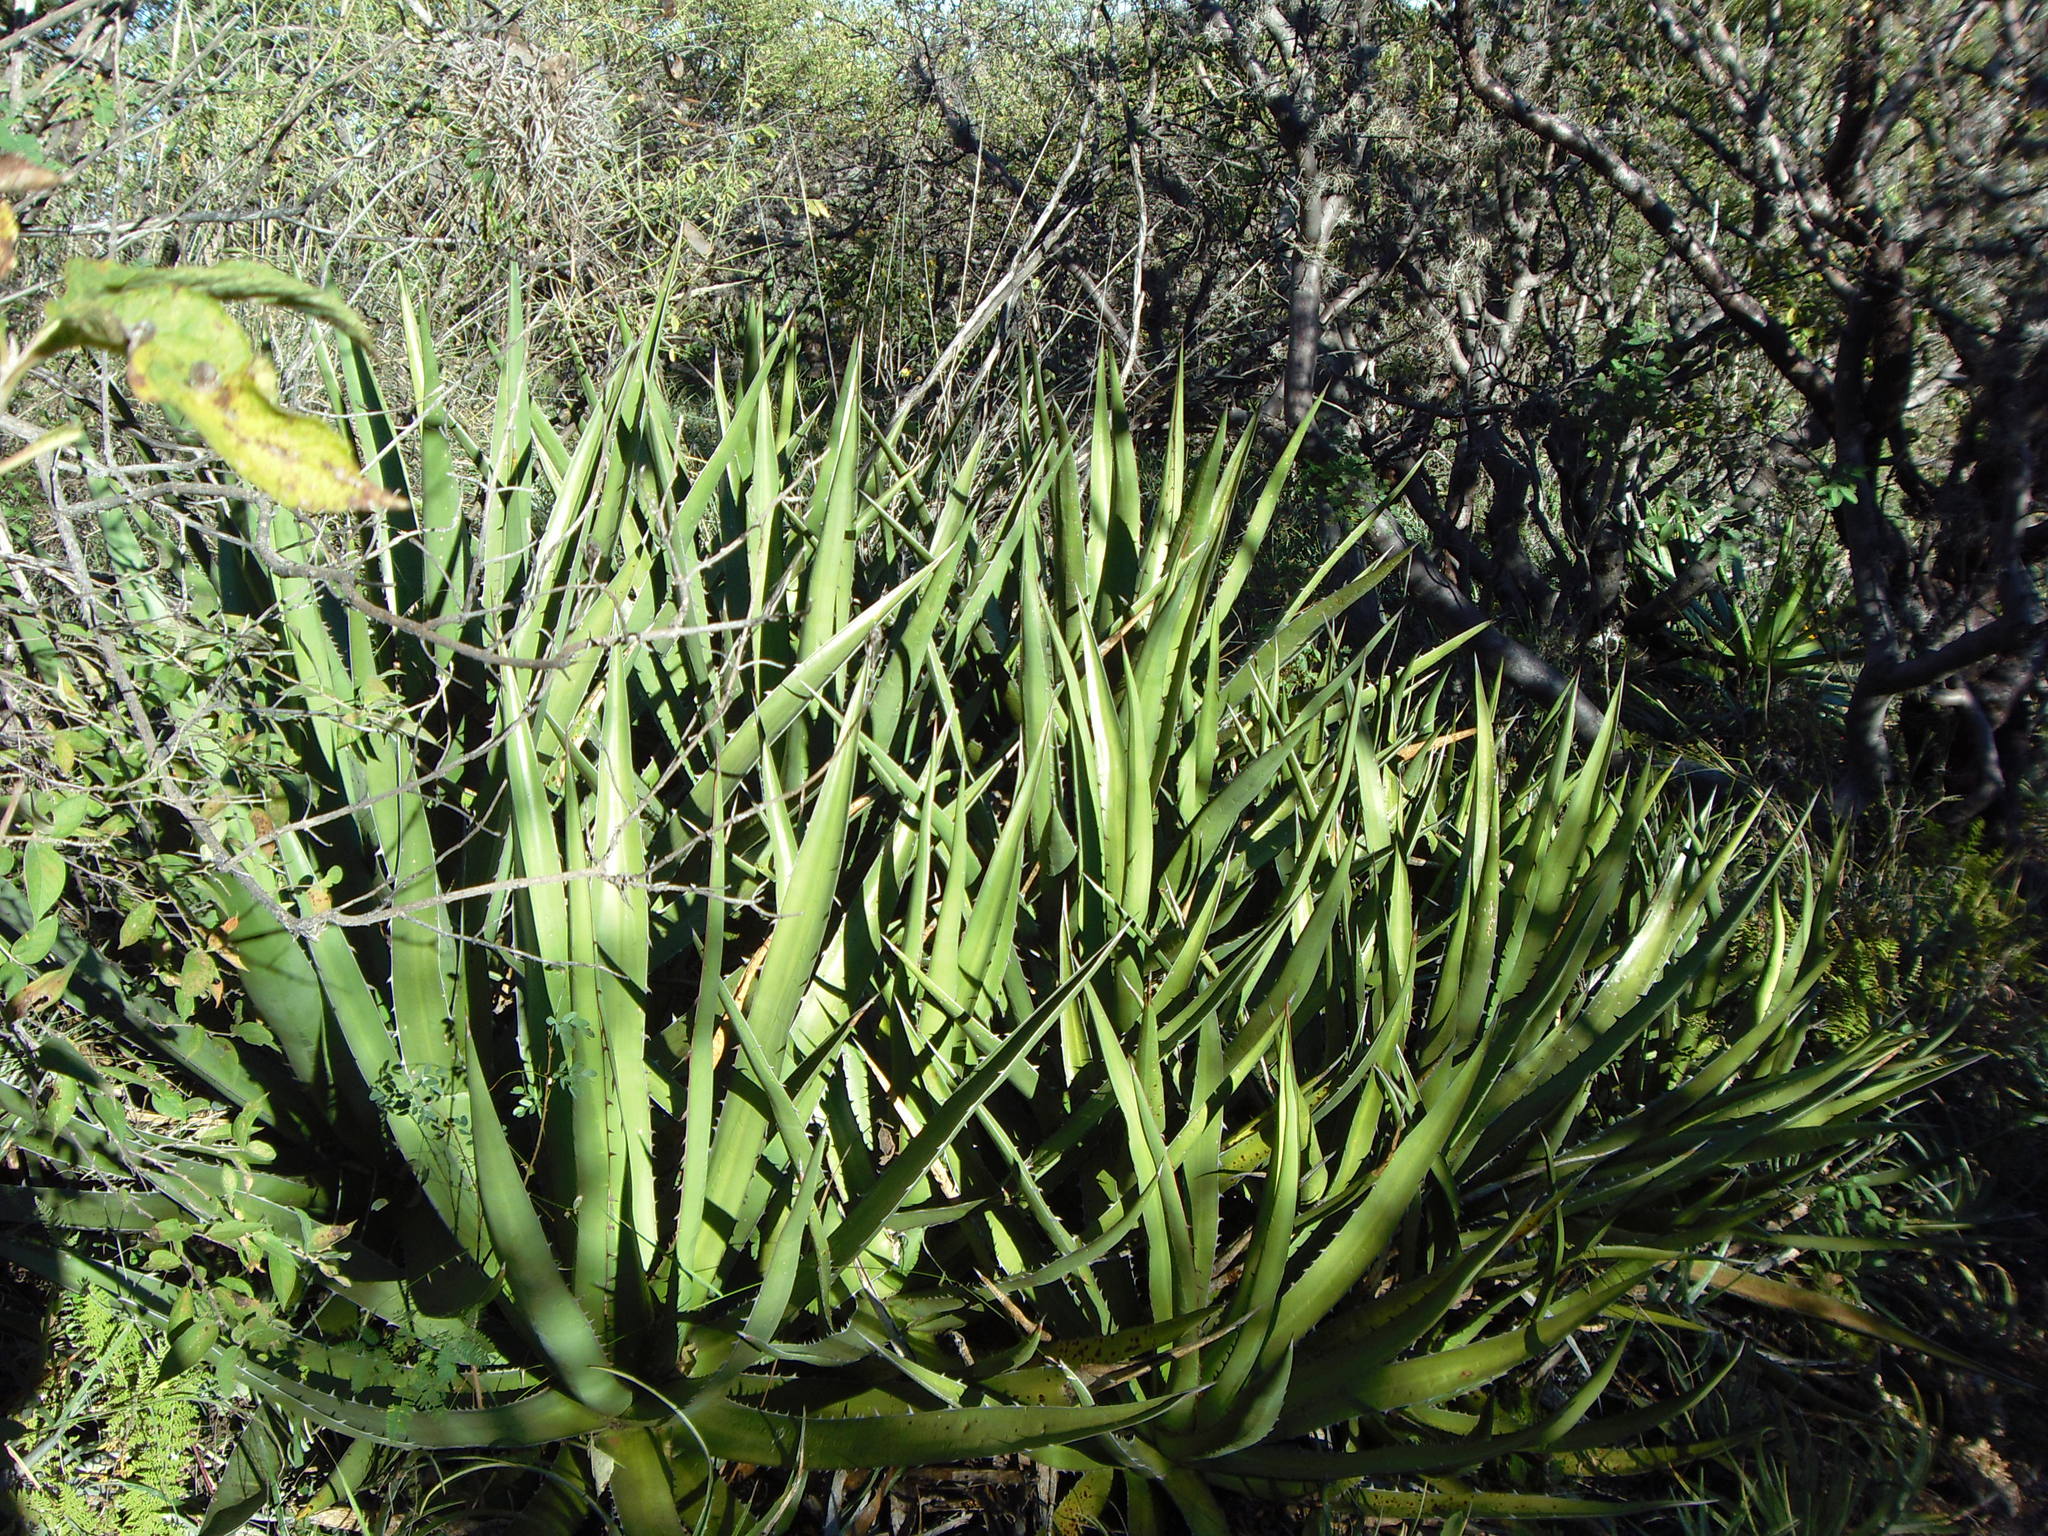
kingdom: Plantae
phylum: Tracheophyta
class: Liliopsida
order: Asparagales
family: Asparagaceae
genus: Agave
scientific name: Agave angustiarum
